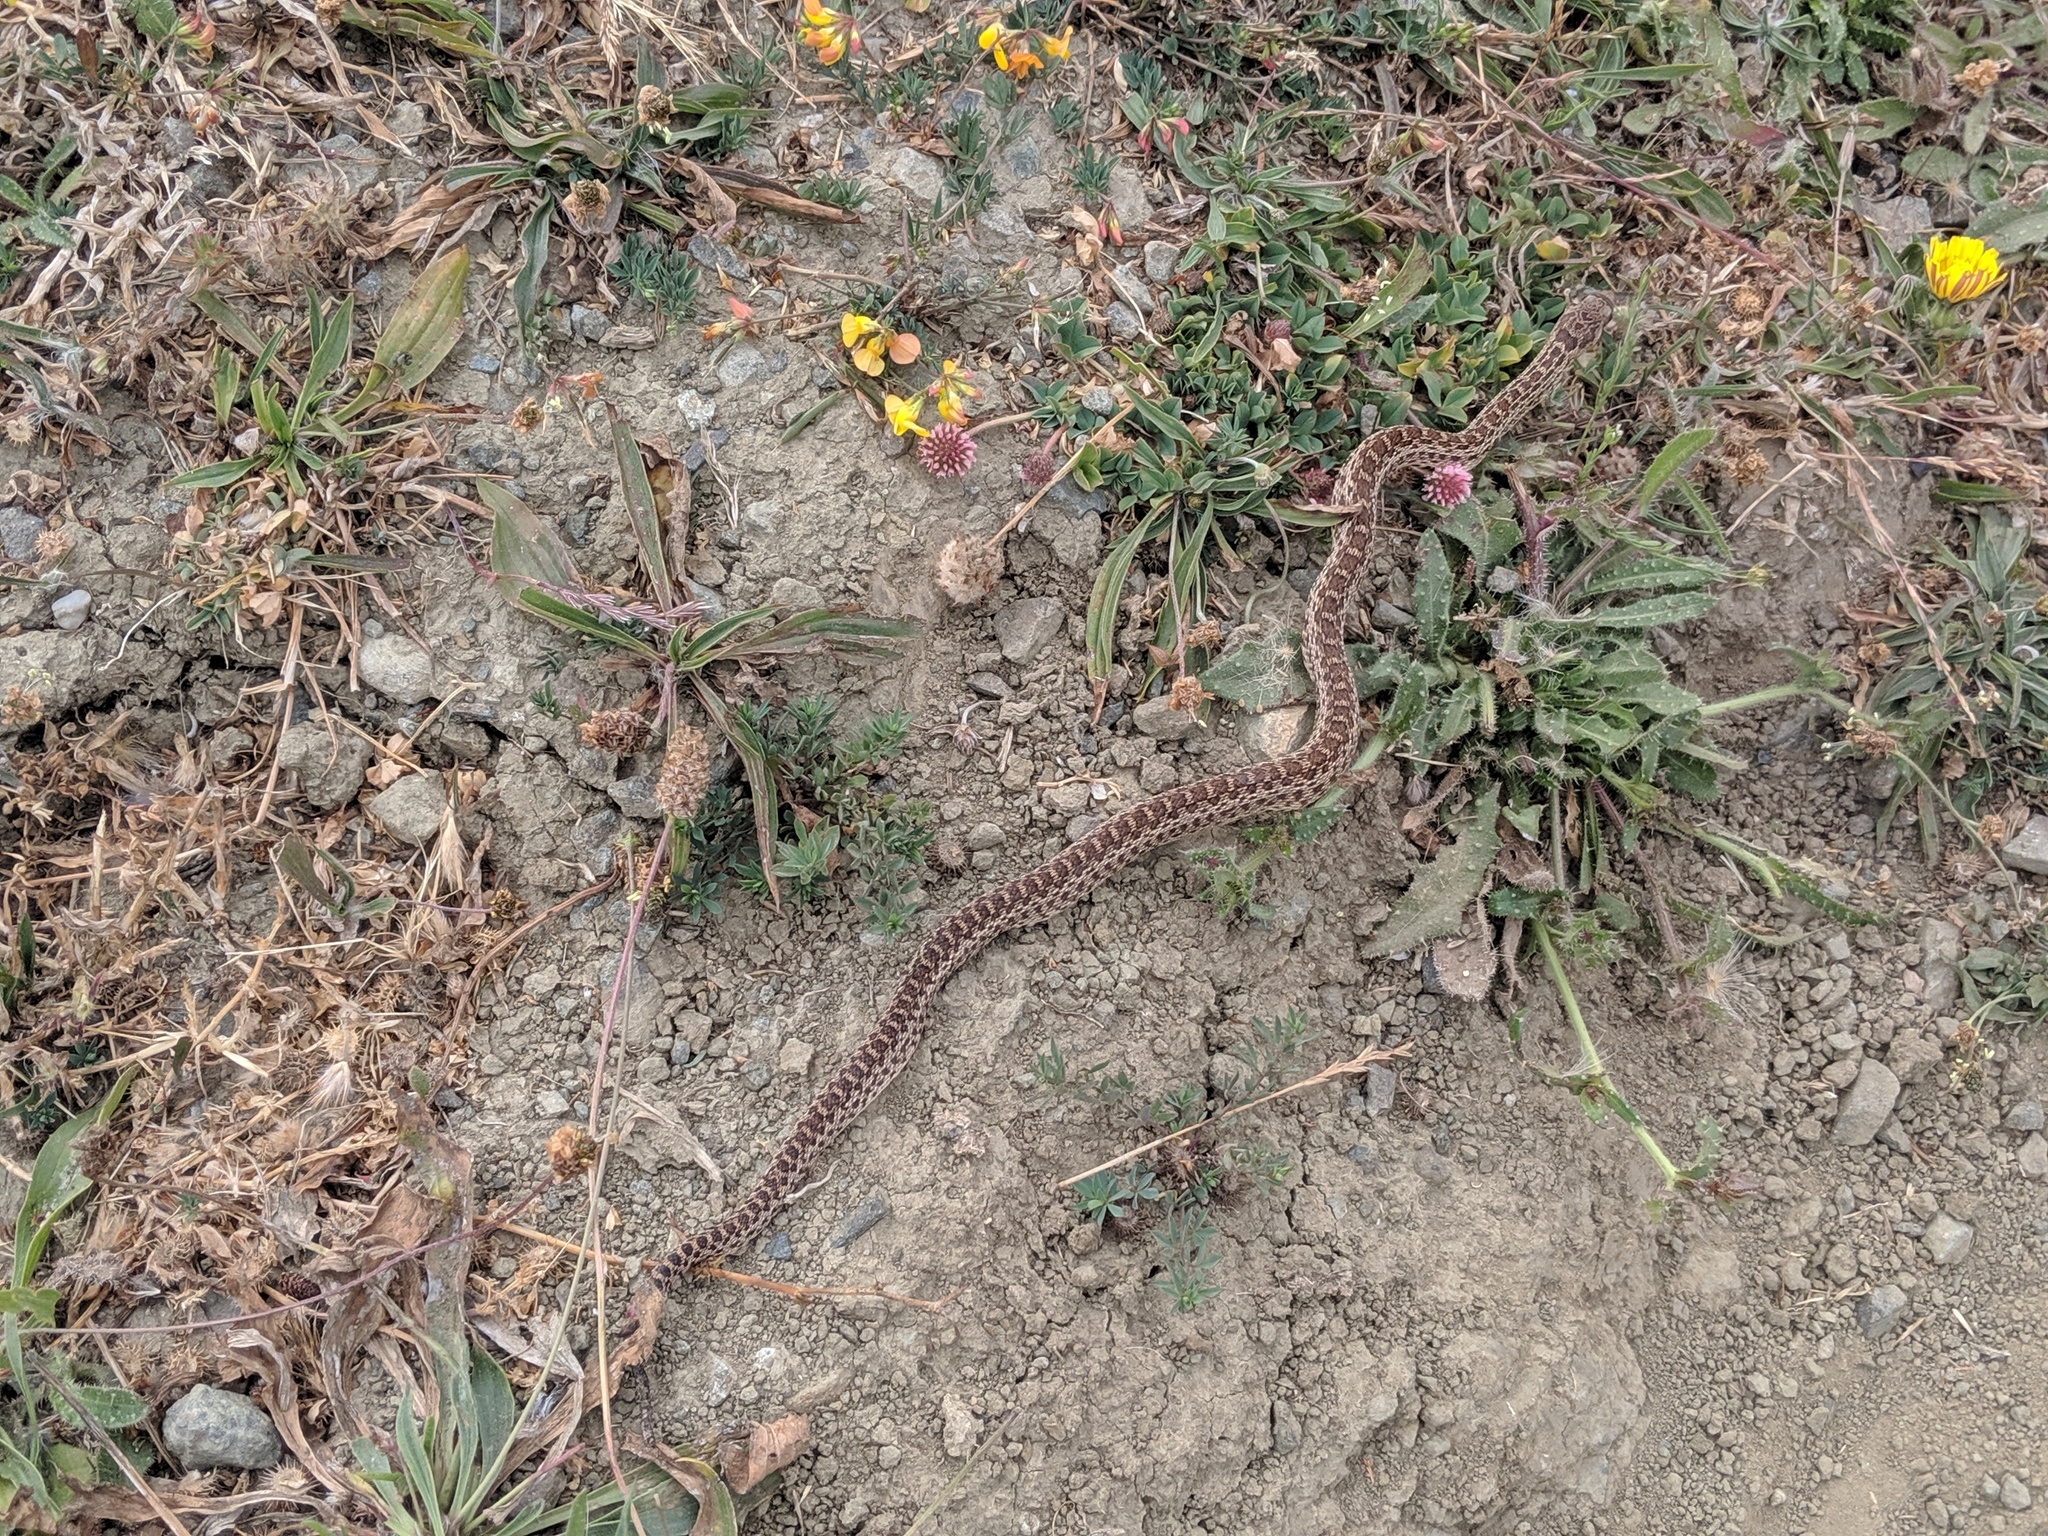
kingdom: Animalia
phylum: Chordata
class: Squamata
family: Colubridae
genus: Pituophis
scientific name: Pituophis catenifer
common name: Gopher snake
